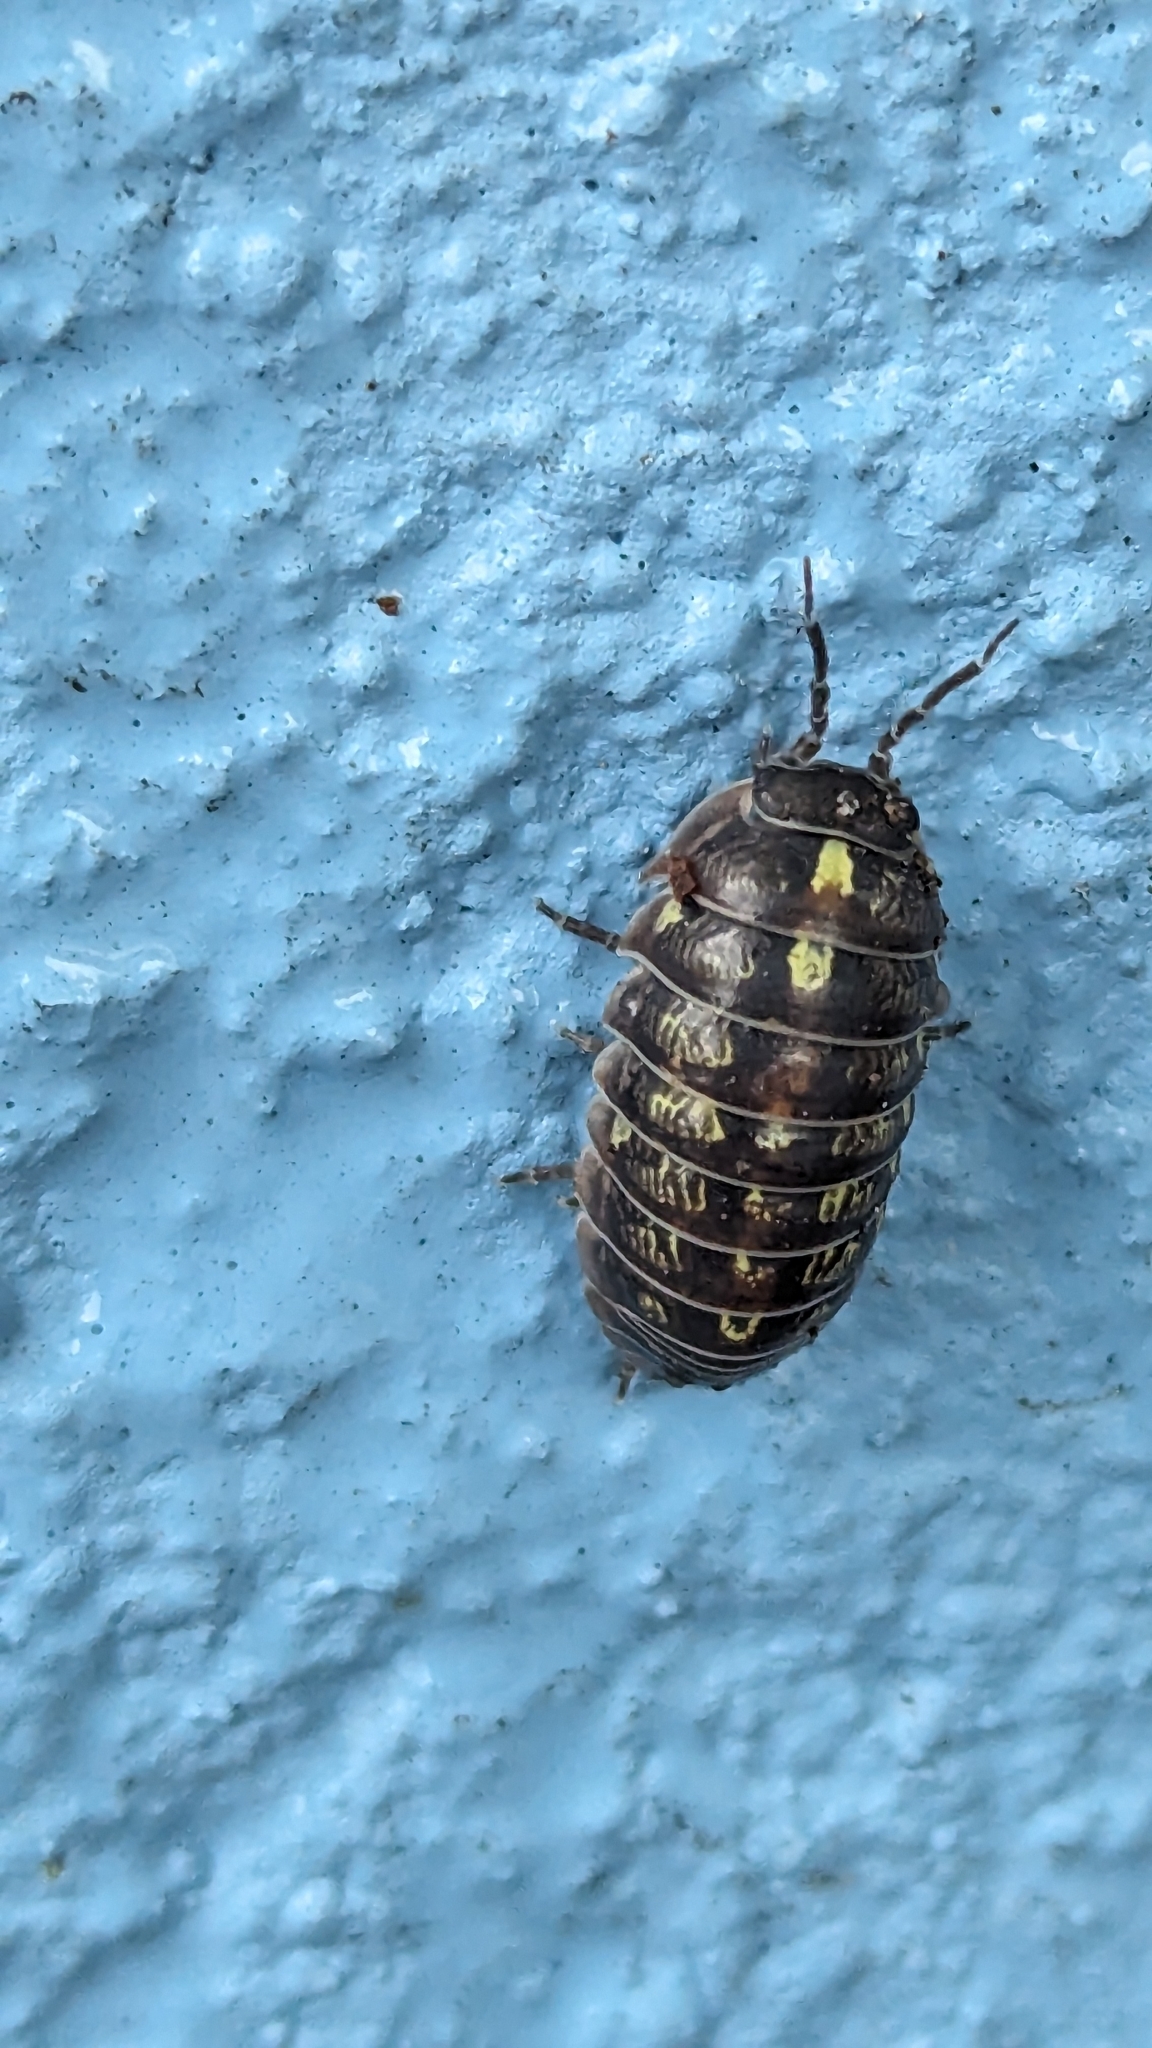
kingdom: Animalia
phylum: Arthropoda
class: Malacostraca
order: Isopoda
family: Armadillidiidae
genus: Armadillidium
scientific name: Armadillidium vulgare
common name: Common pill woodlouse
